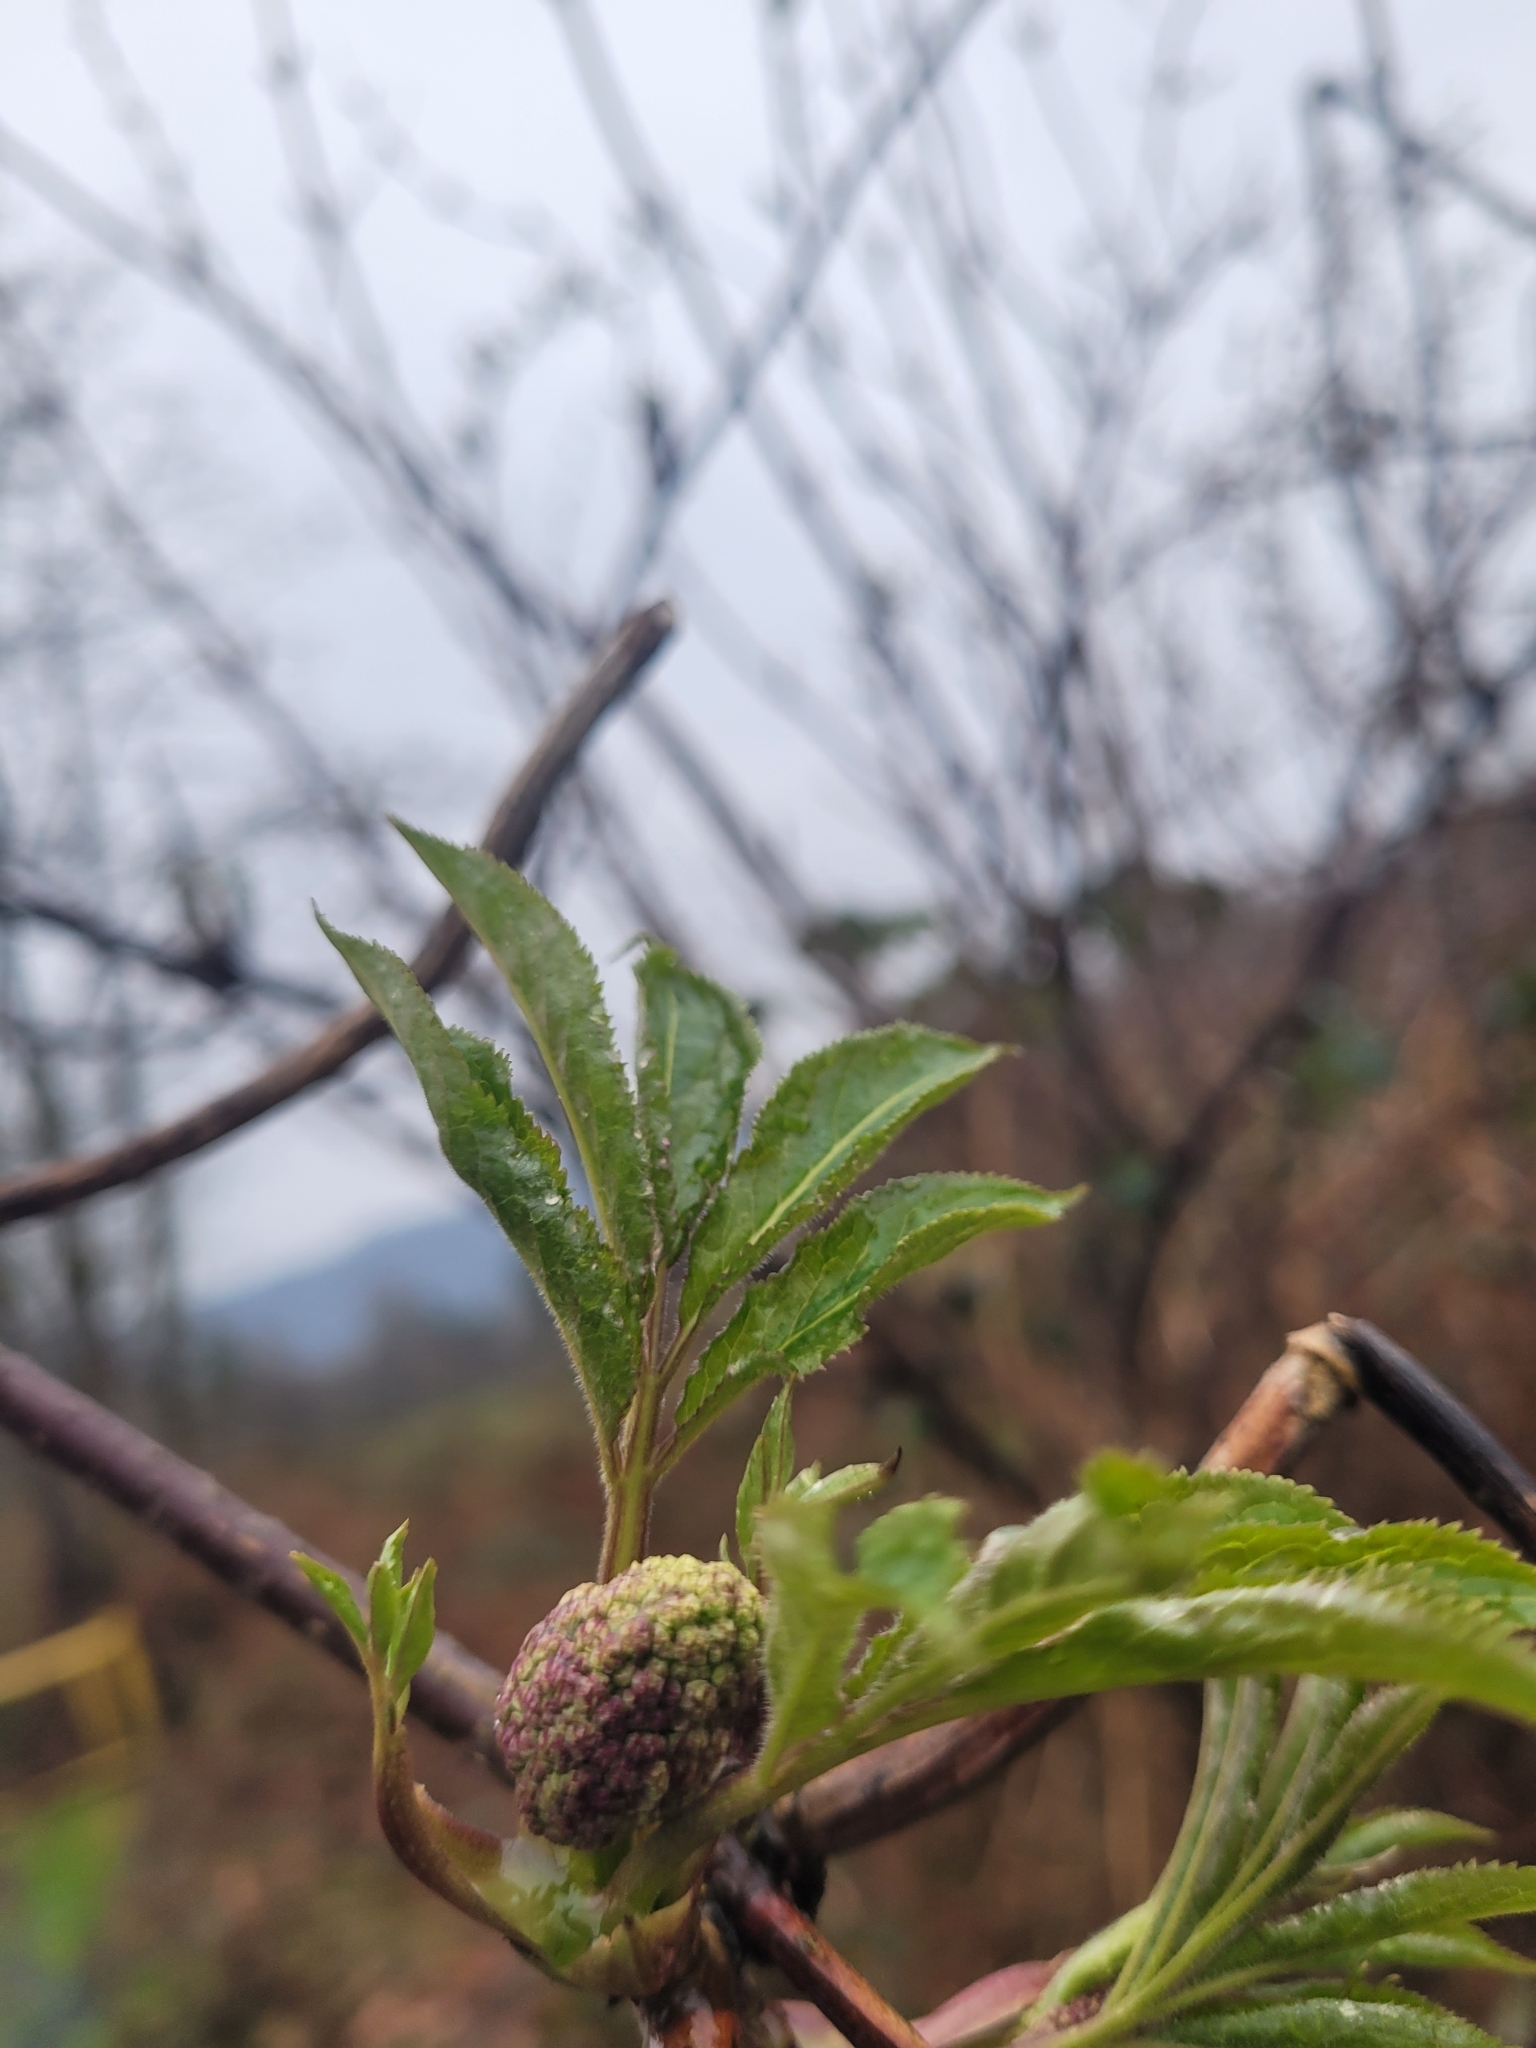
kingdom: Plantae
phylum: Tracheophyta
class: Magnoliopsida
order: Dipsacales
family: Viburnaceae
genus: Sambucus
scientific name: Sambucus racemosa
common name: Red-berried elder
